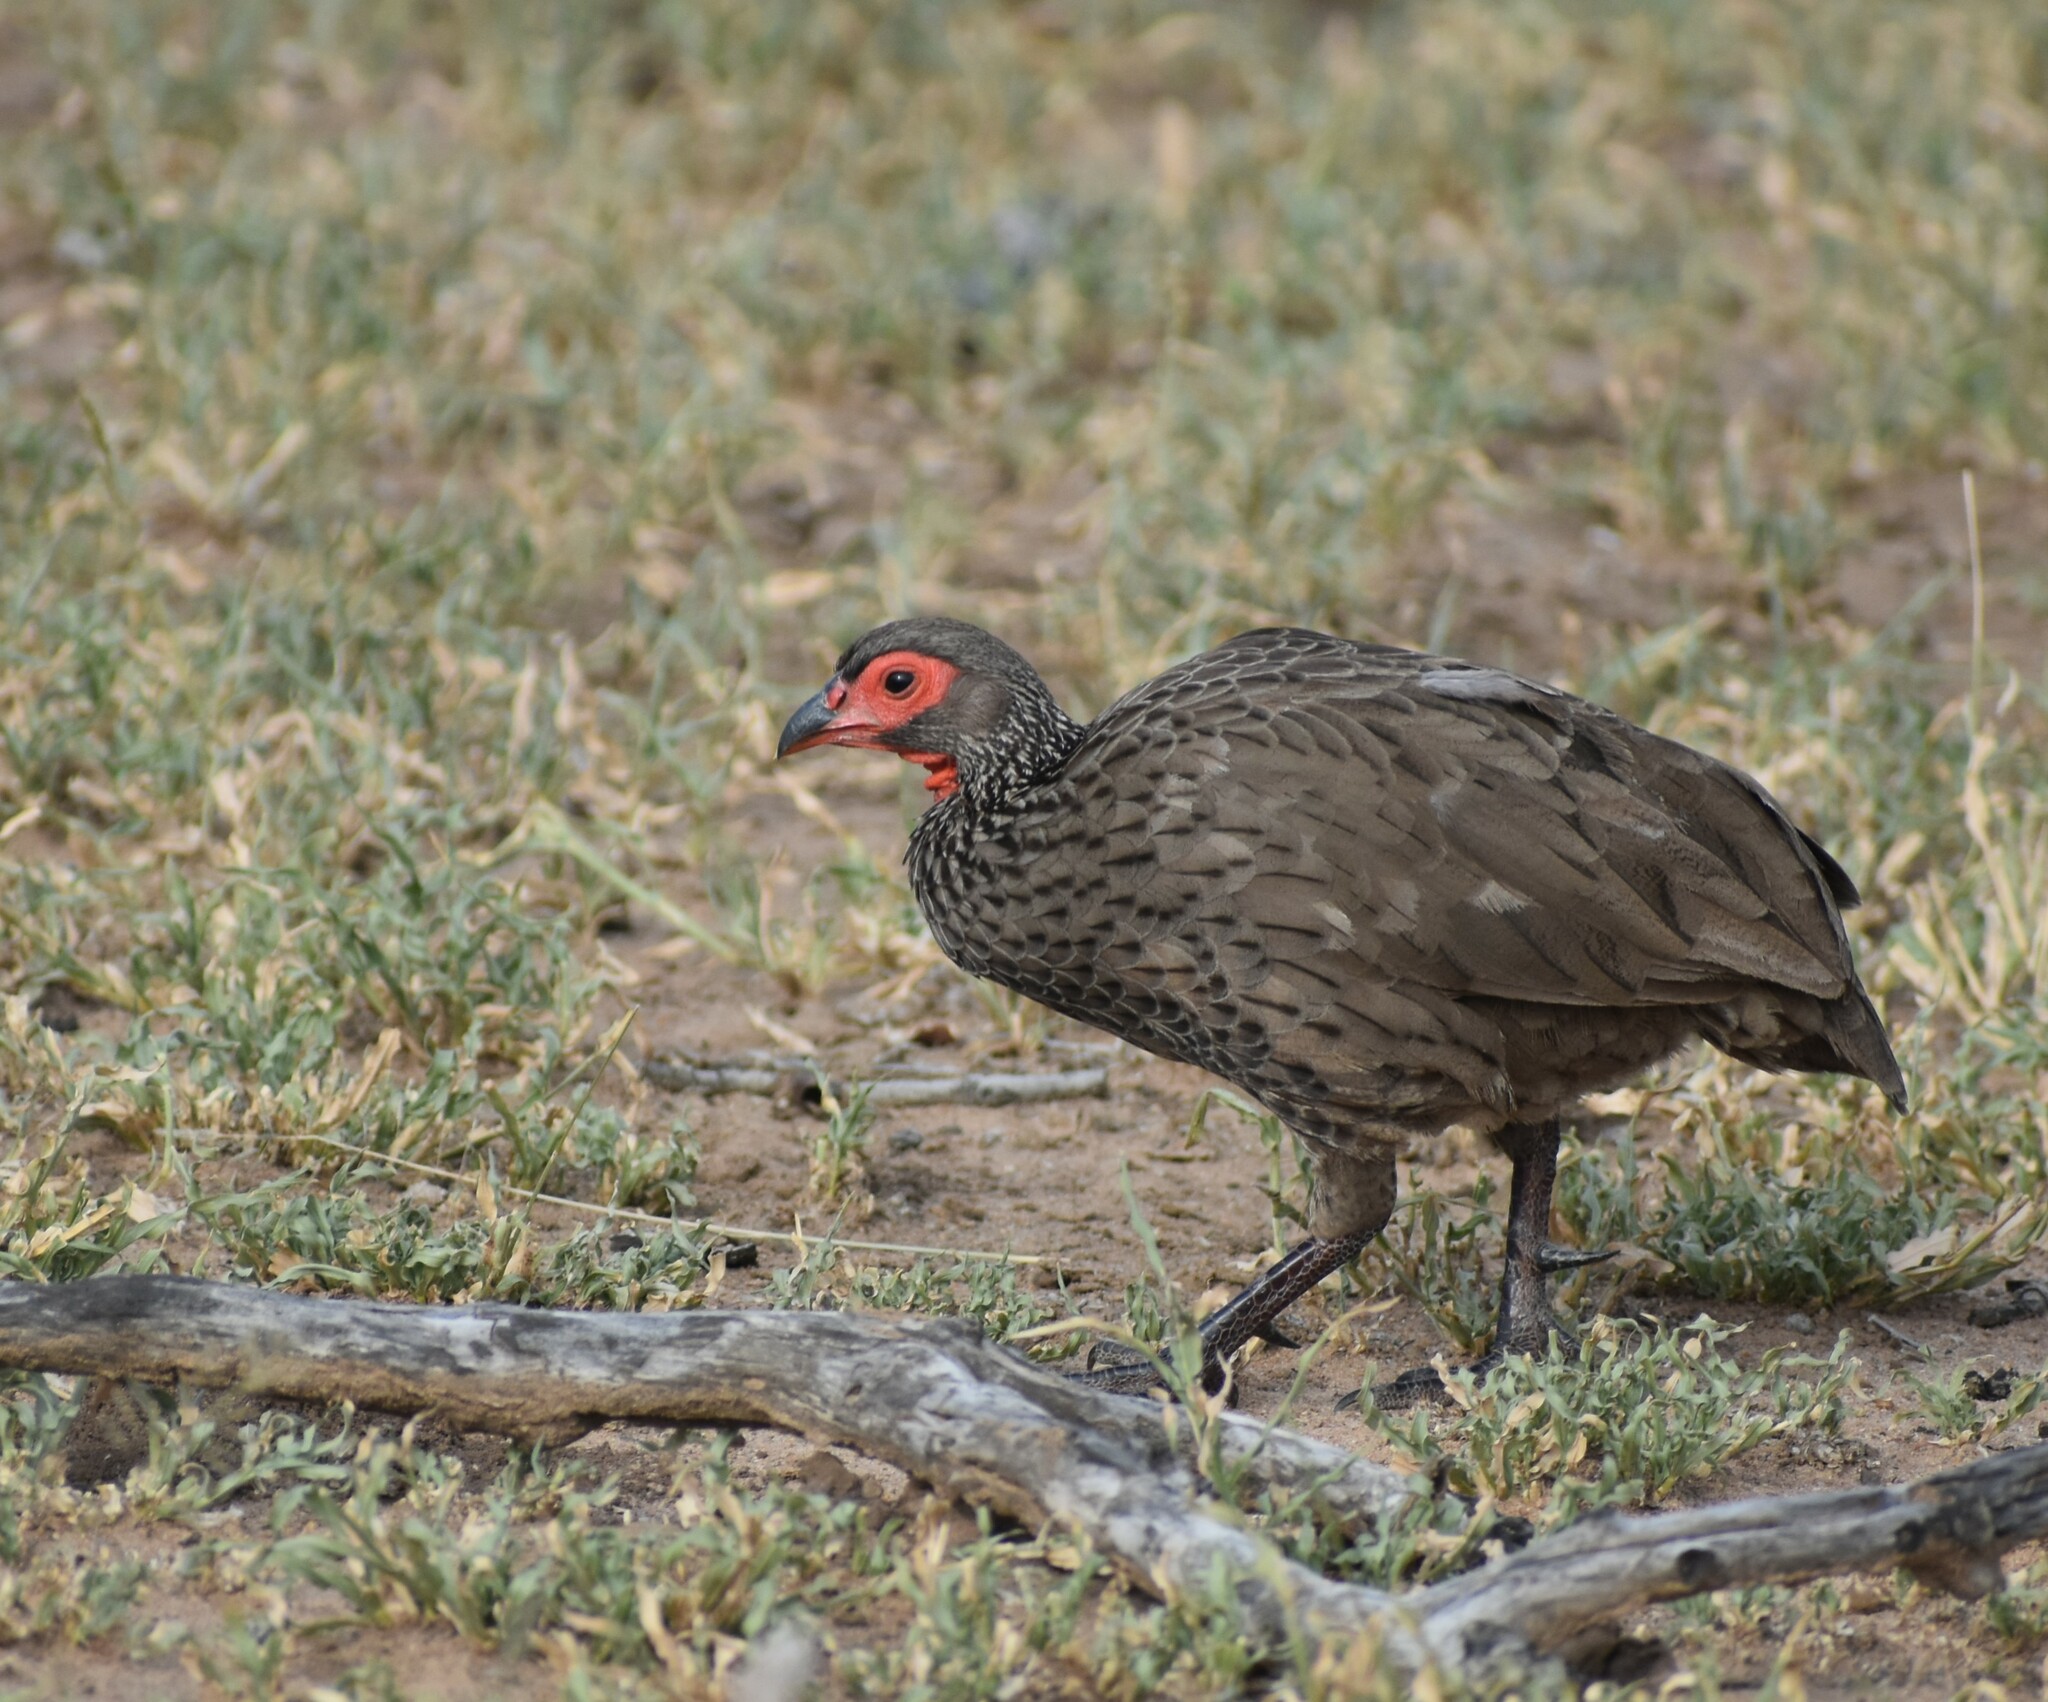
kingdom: Animalia
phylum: Chordata
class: Aves
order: Galliformes
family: Phasianidae
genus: Pternistis
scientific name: Pternistis swainsonii
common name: Swainson's spurfowl
